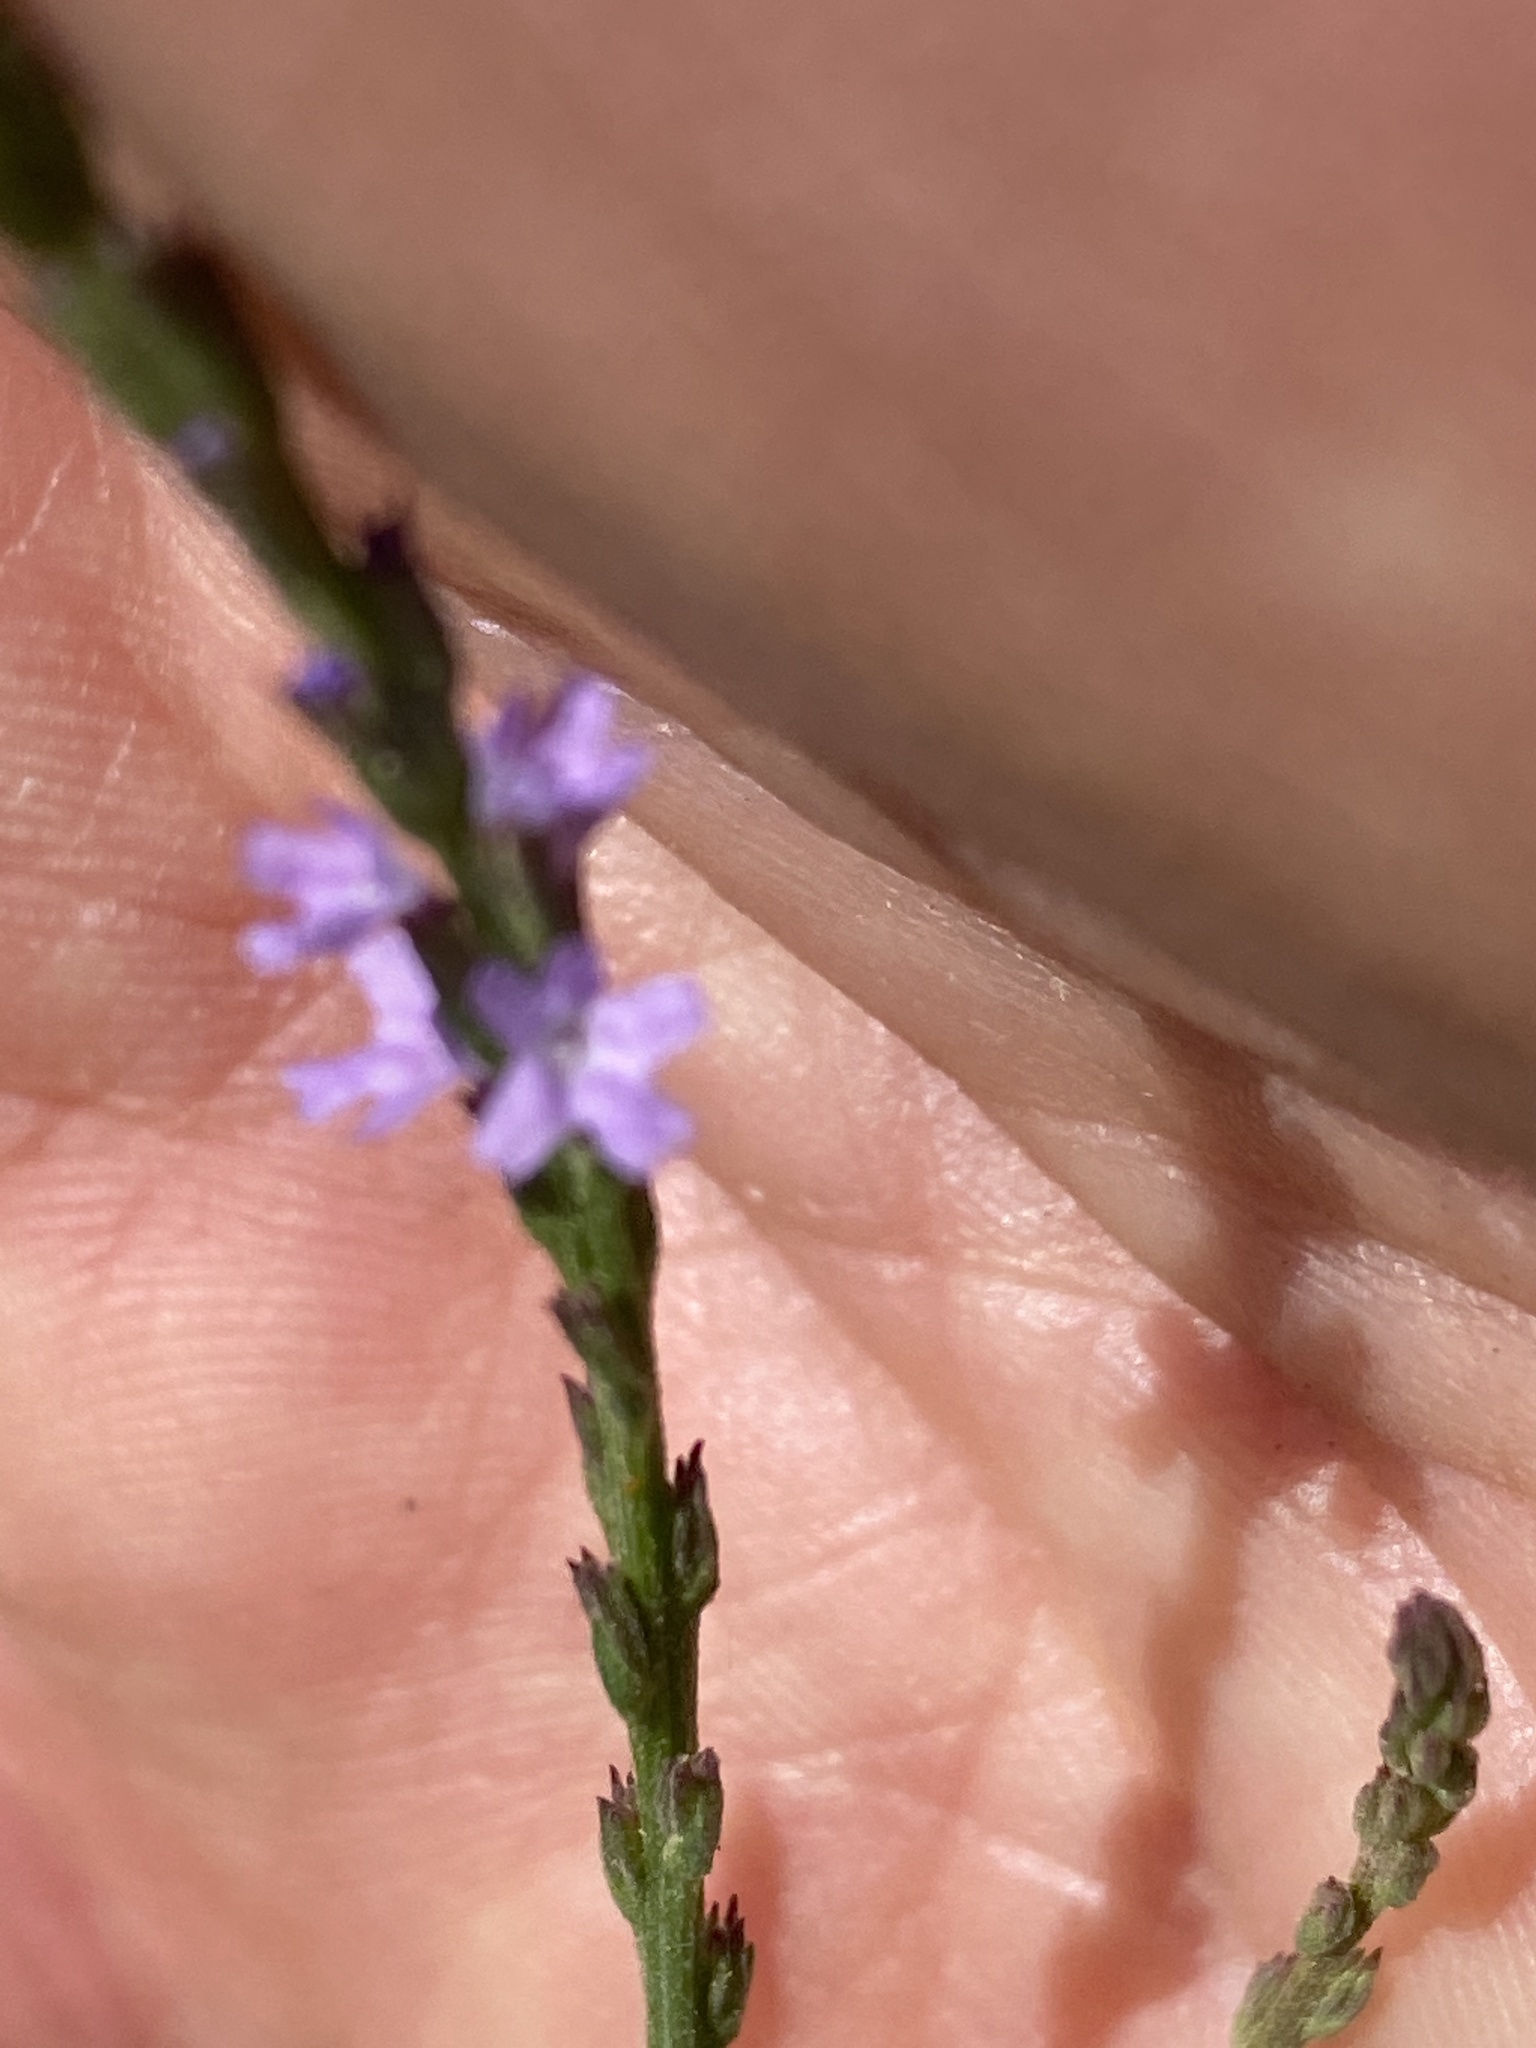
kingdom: Plantae
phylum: Tracheophyta
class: Magnoliopsida
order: Lamiales
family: Verbenaceae
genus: Verbena
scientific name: Verbena halei
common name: Texas vervain
